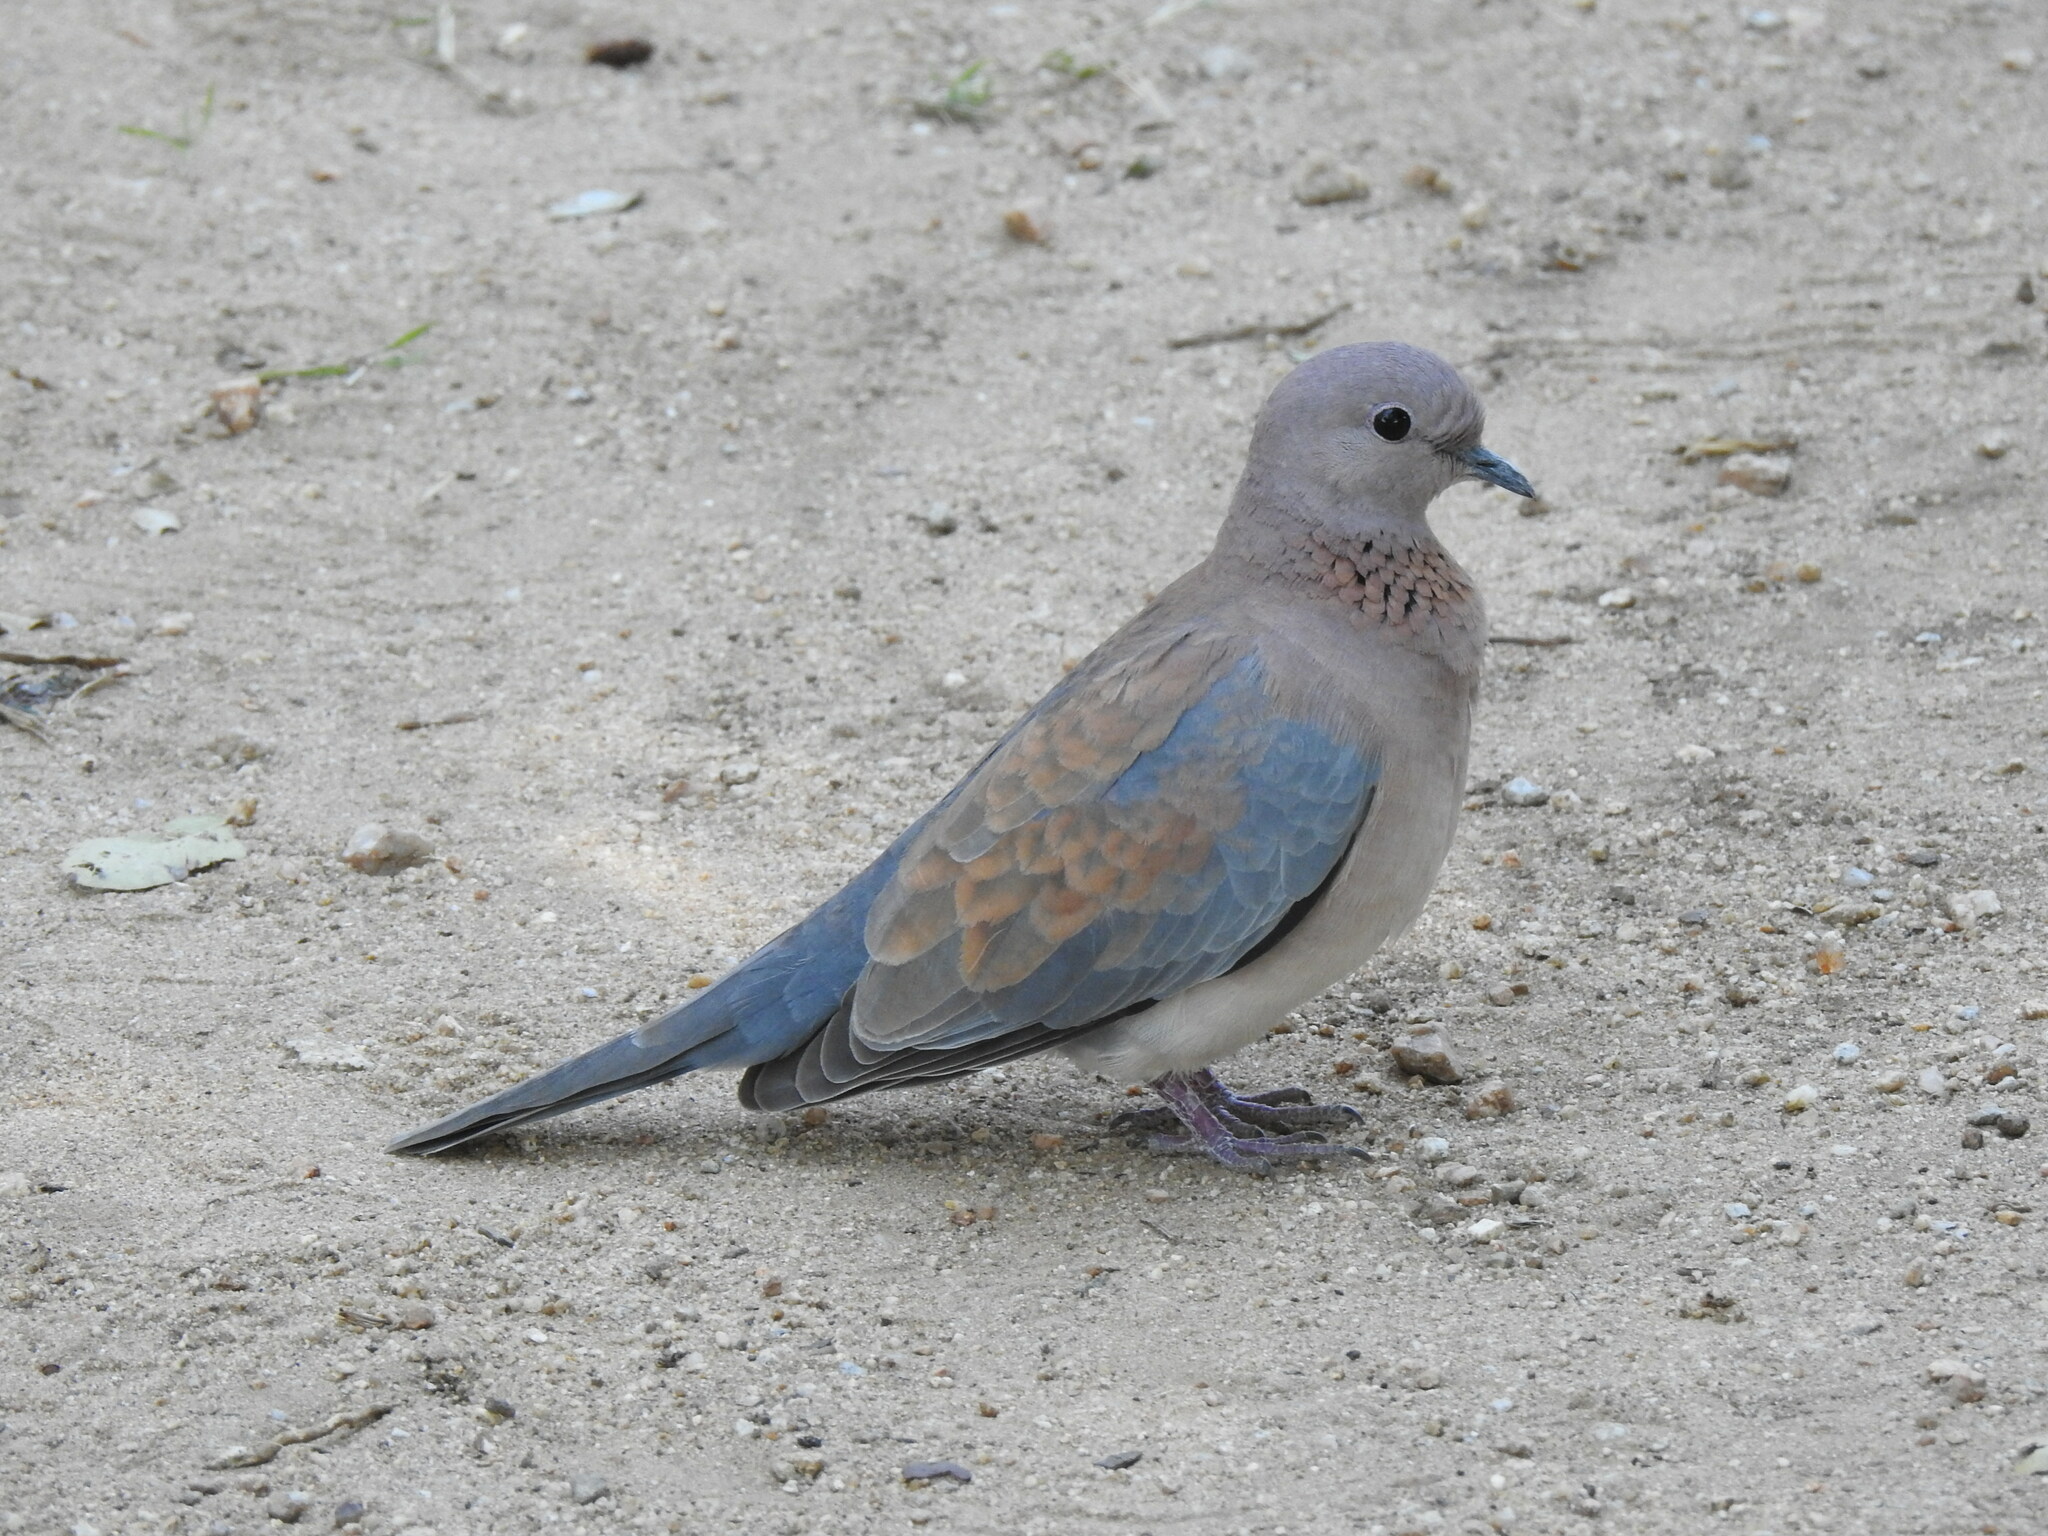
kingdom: Animalia
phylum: Chordata
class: Aves
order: Columbiformes
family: Columbidae
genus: Spilopelia
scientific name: Spilopelia senegalensis
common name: Laughing dove
